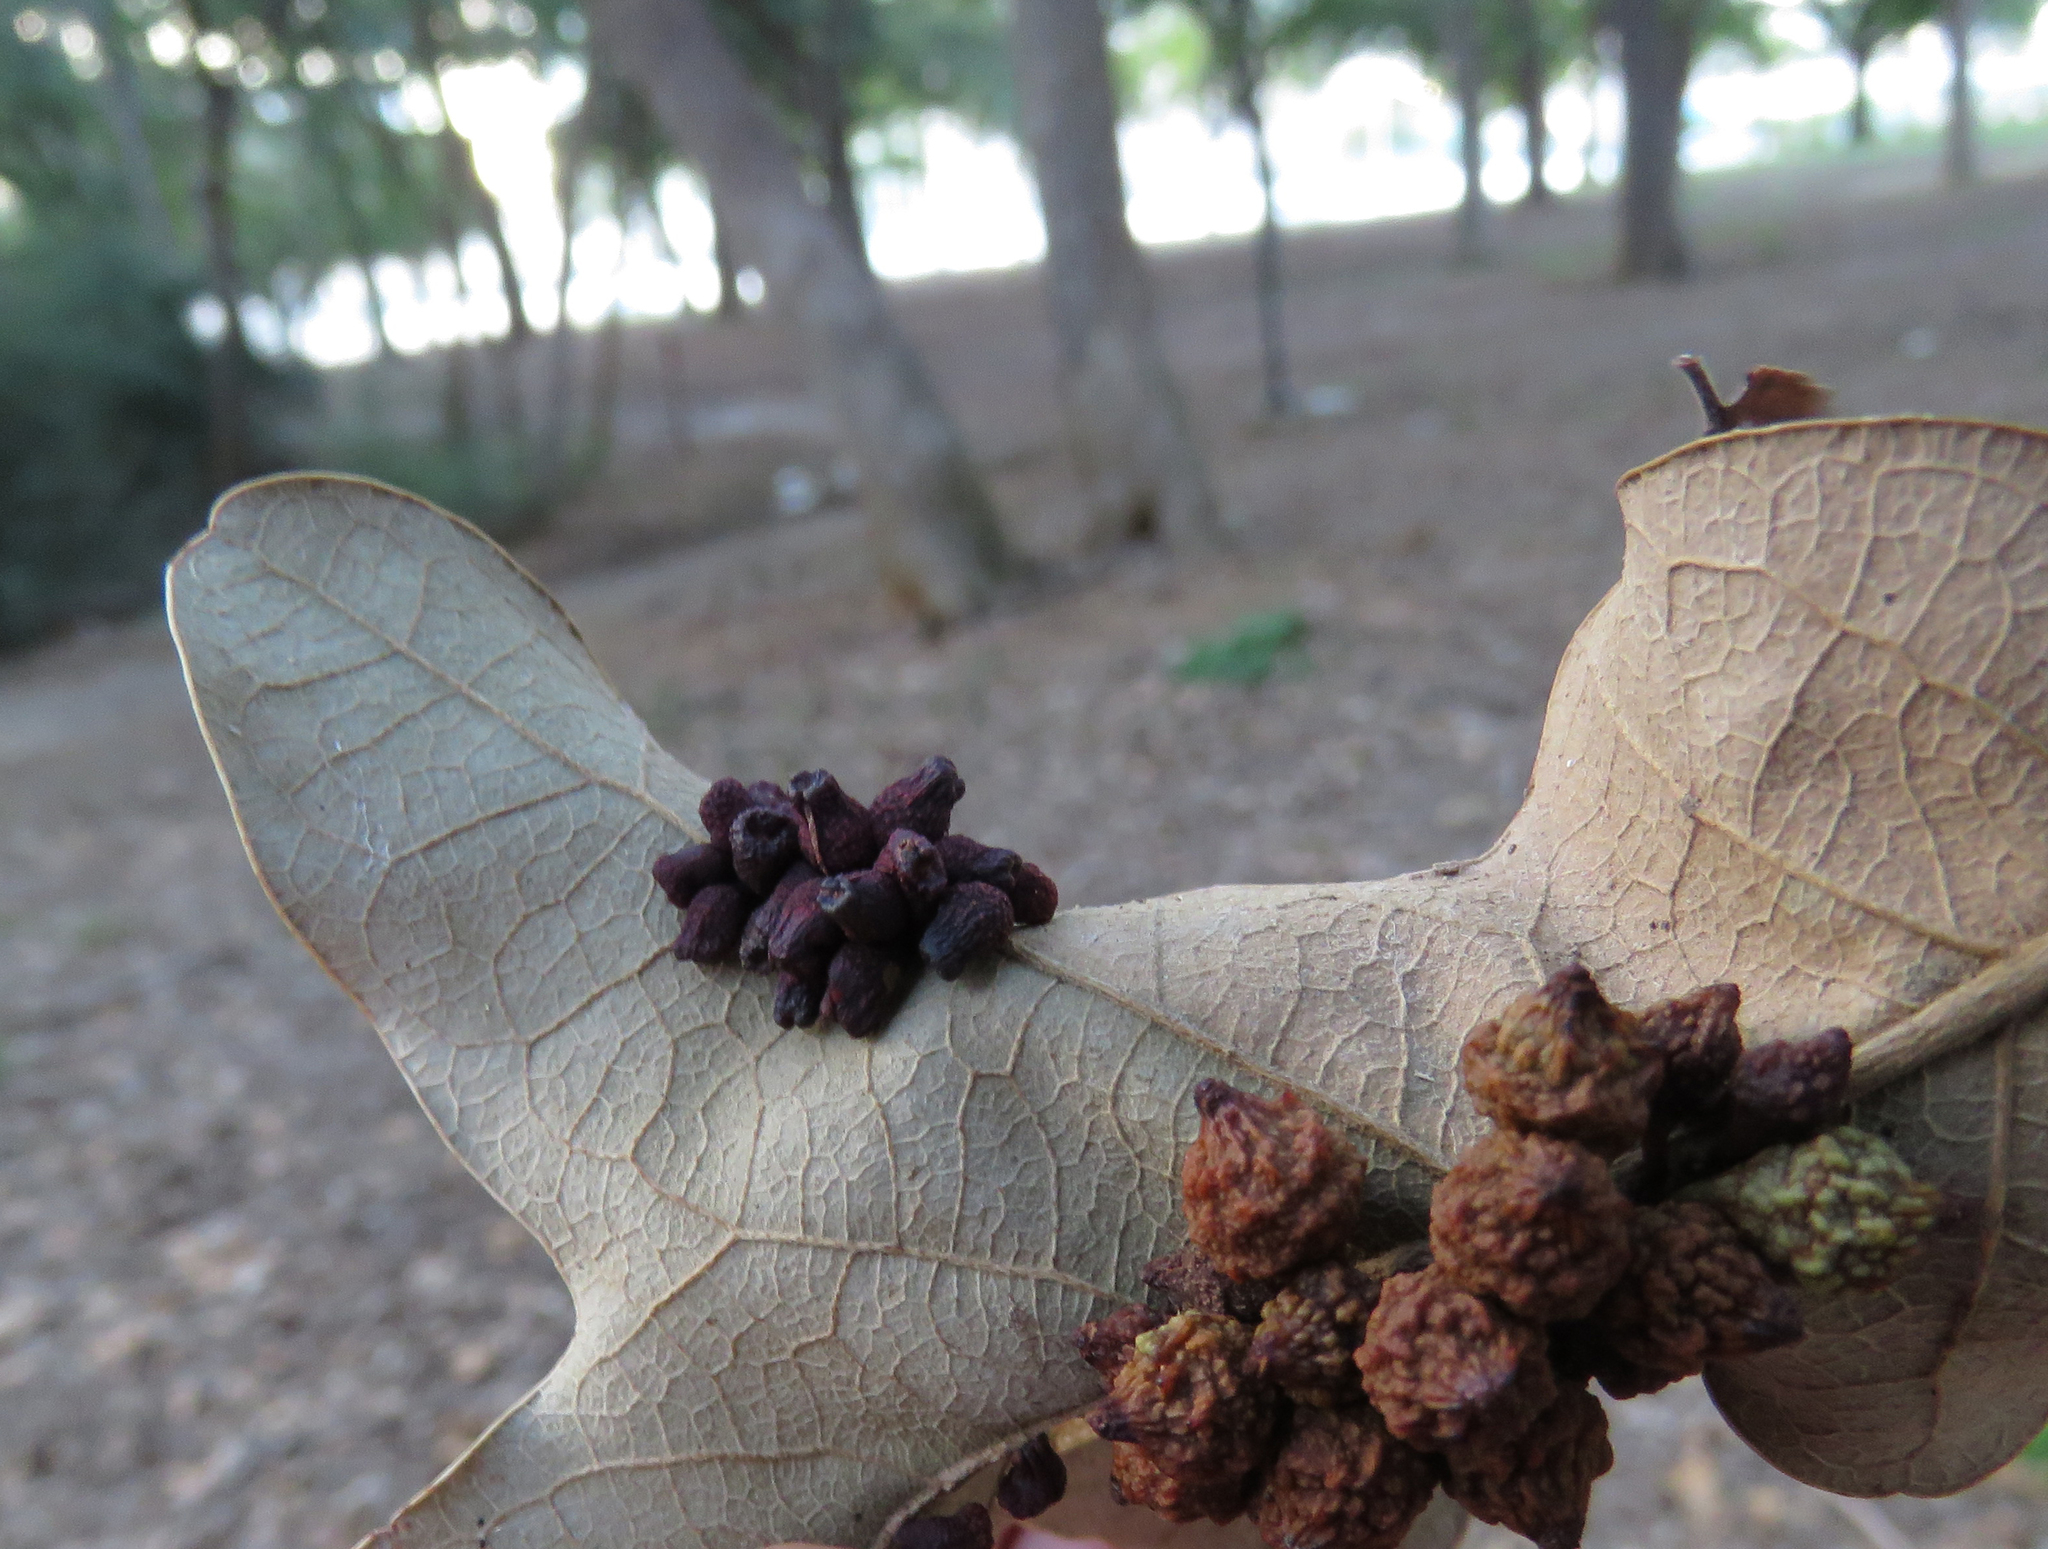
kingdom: Animalia
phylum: Arthropoda
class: Insecta
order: Hymenoptera
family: Cynipidae
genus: Andricus
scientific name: Andricus lustrans
